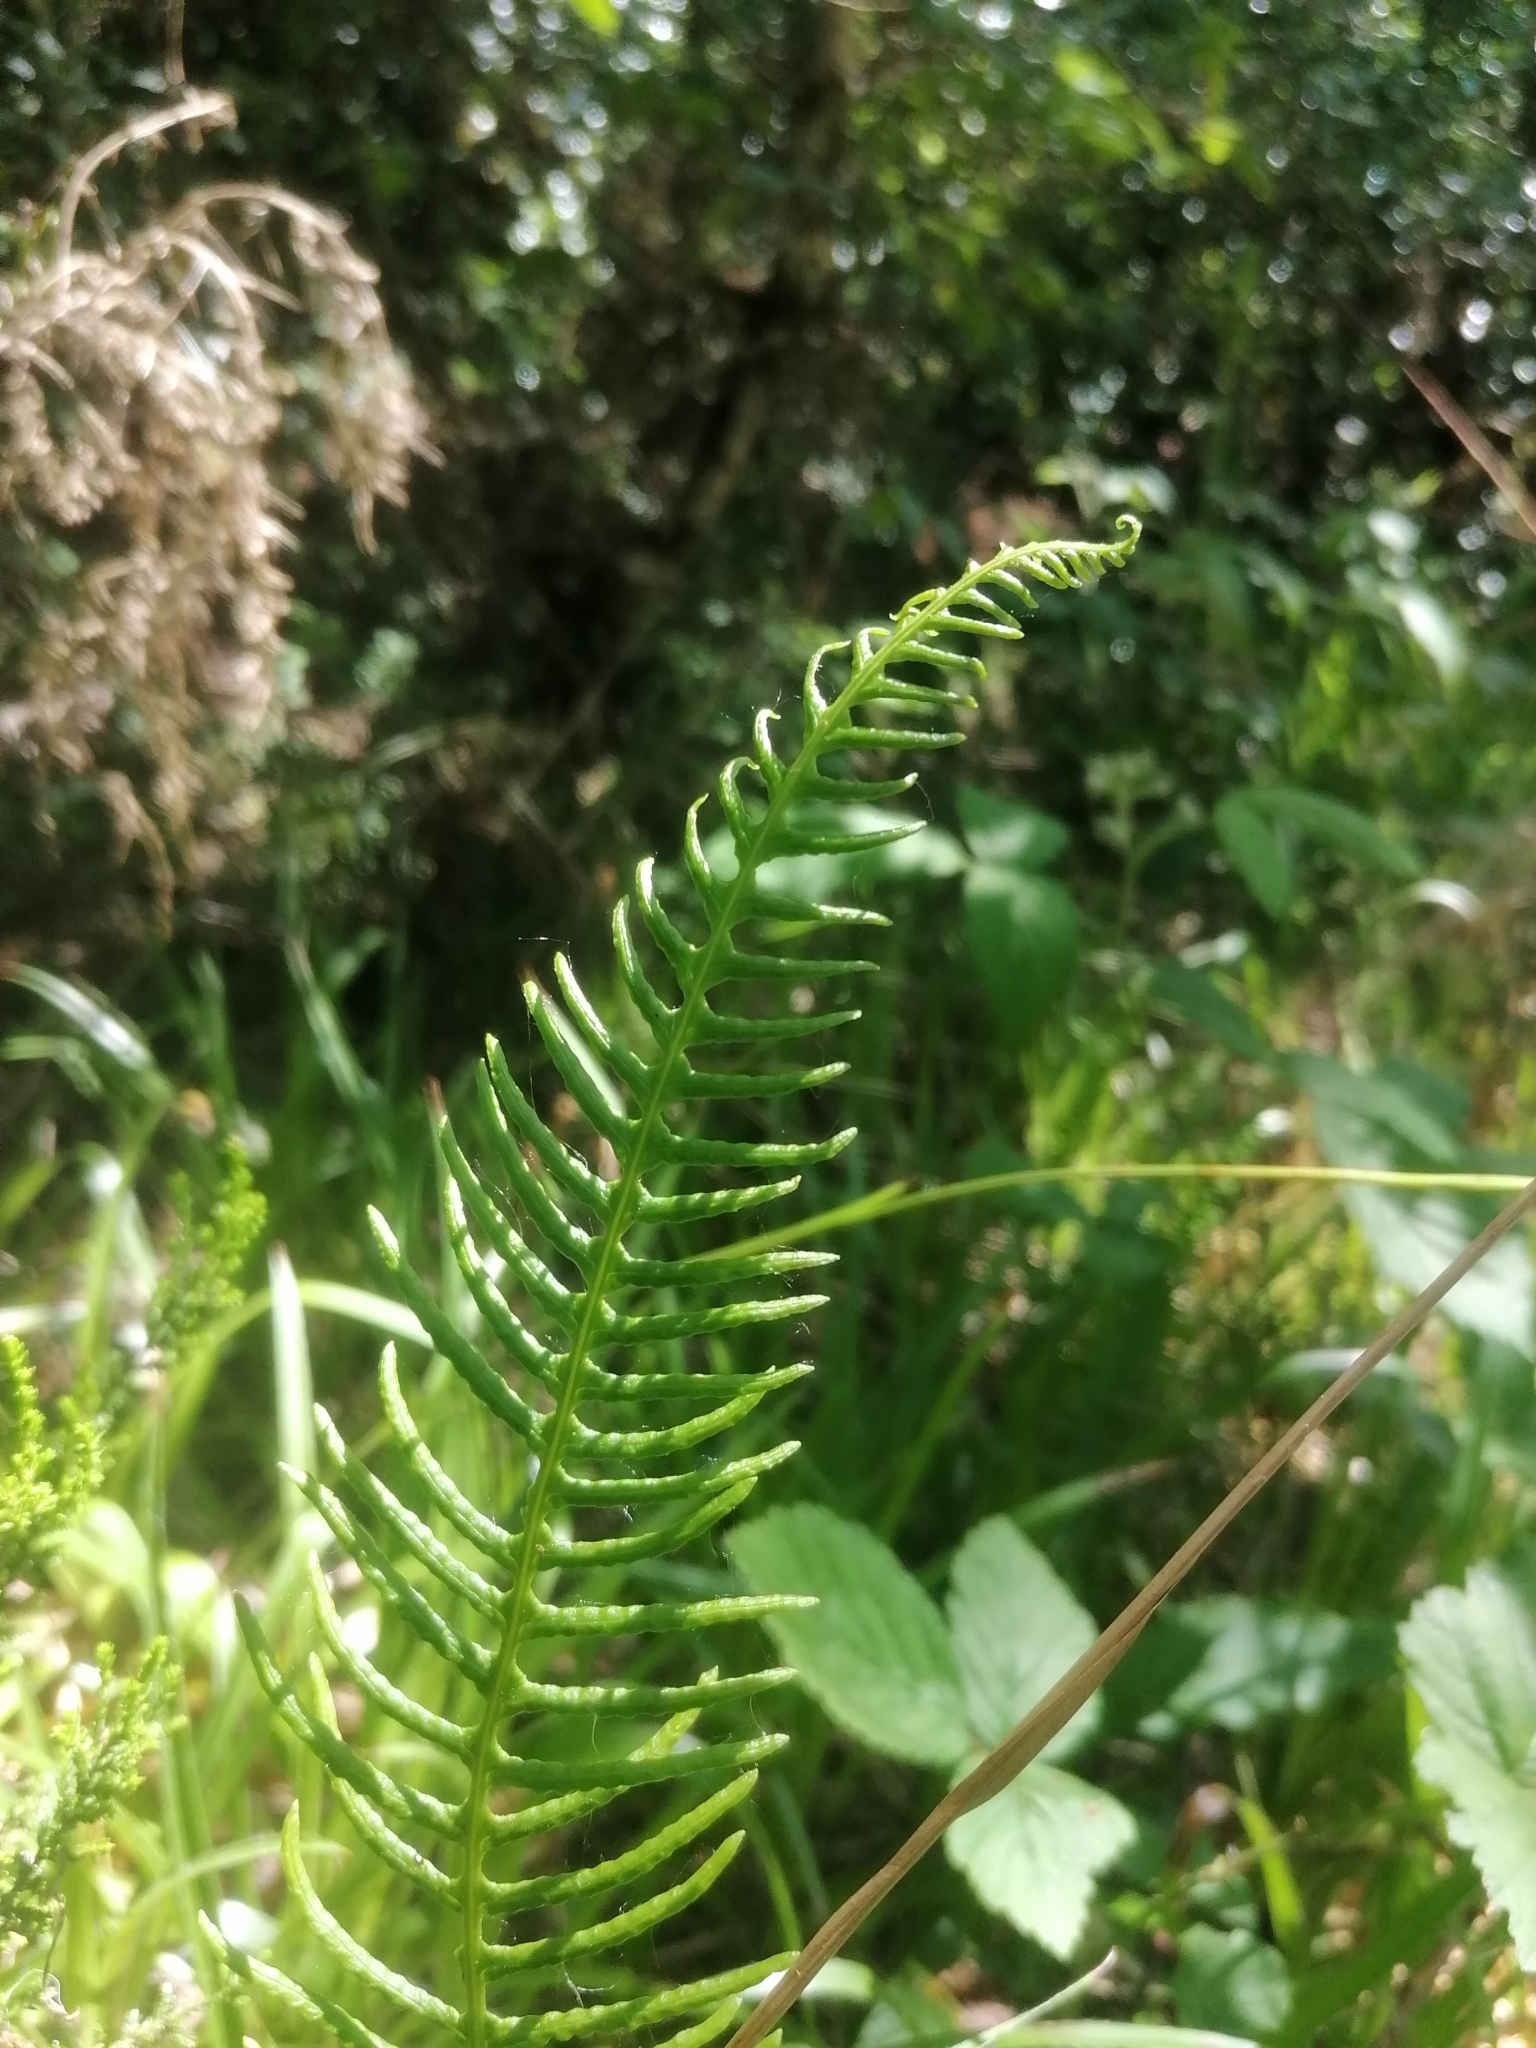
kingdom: Plantae
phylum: Tracheophyta
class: Polypodiopsida
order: Polypodiales
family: Blechnaceae
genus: Struthiopteris
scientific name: Struthiopteris spicant
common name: Deer fern
